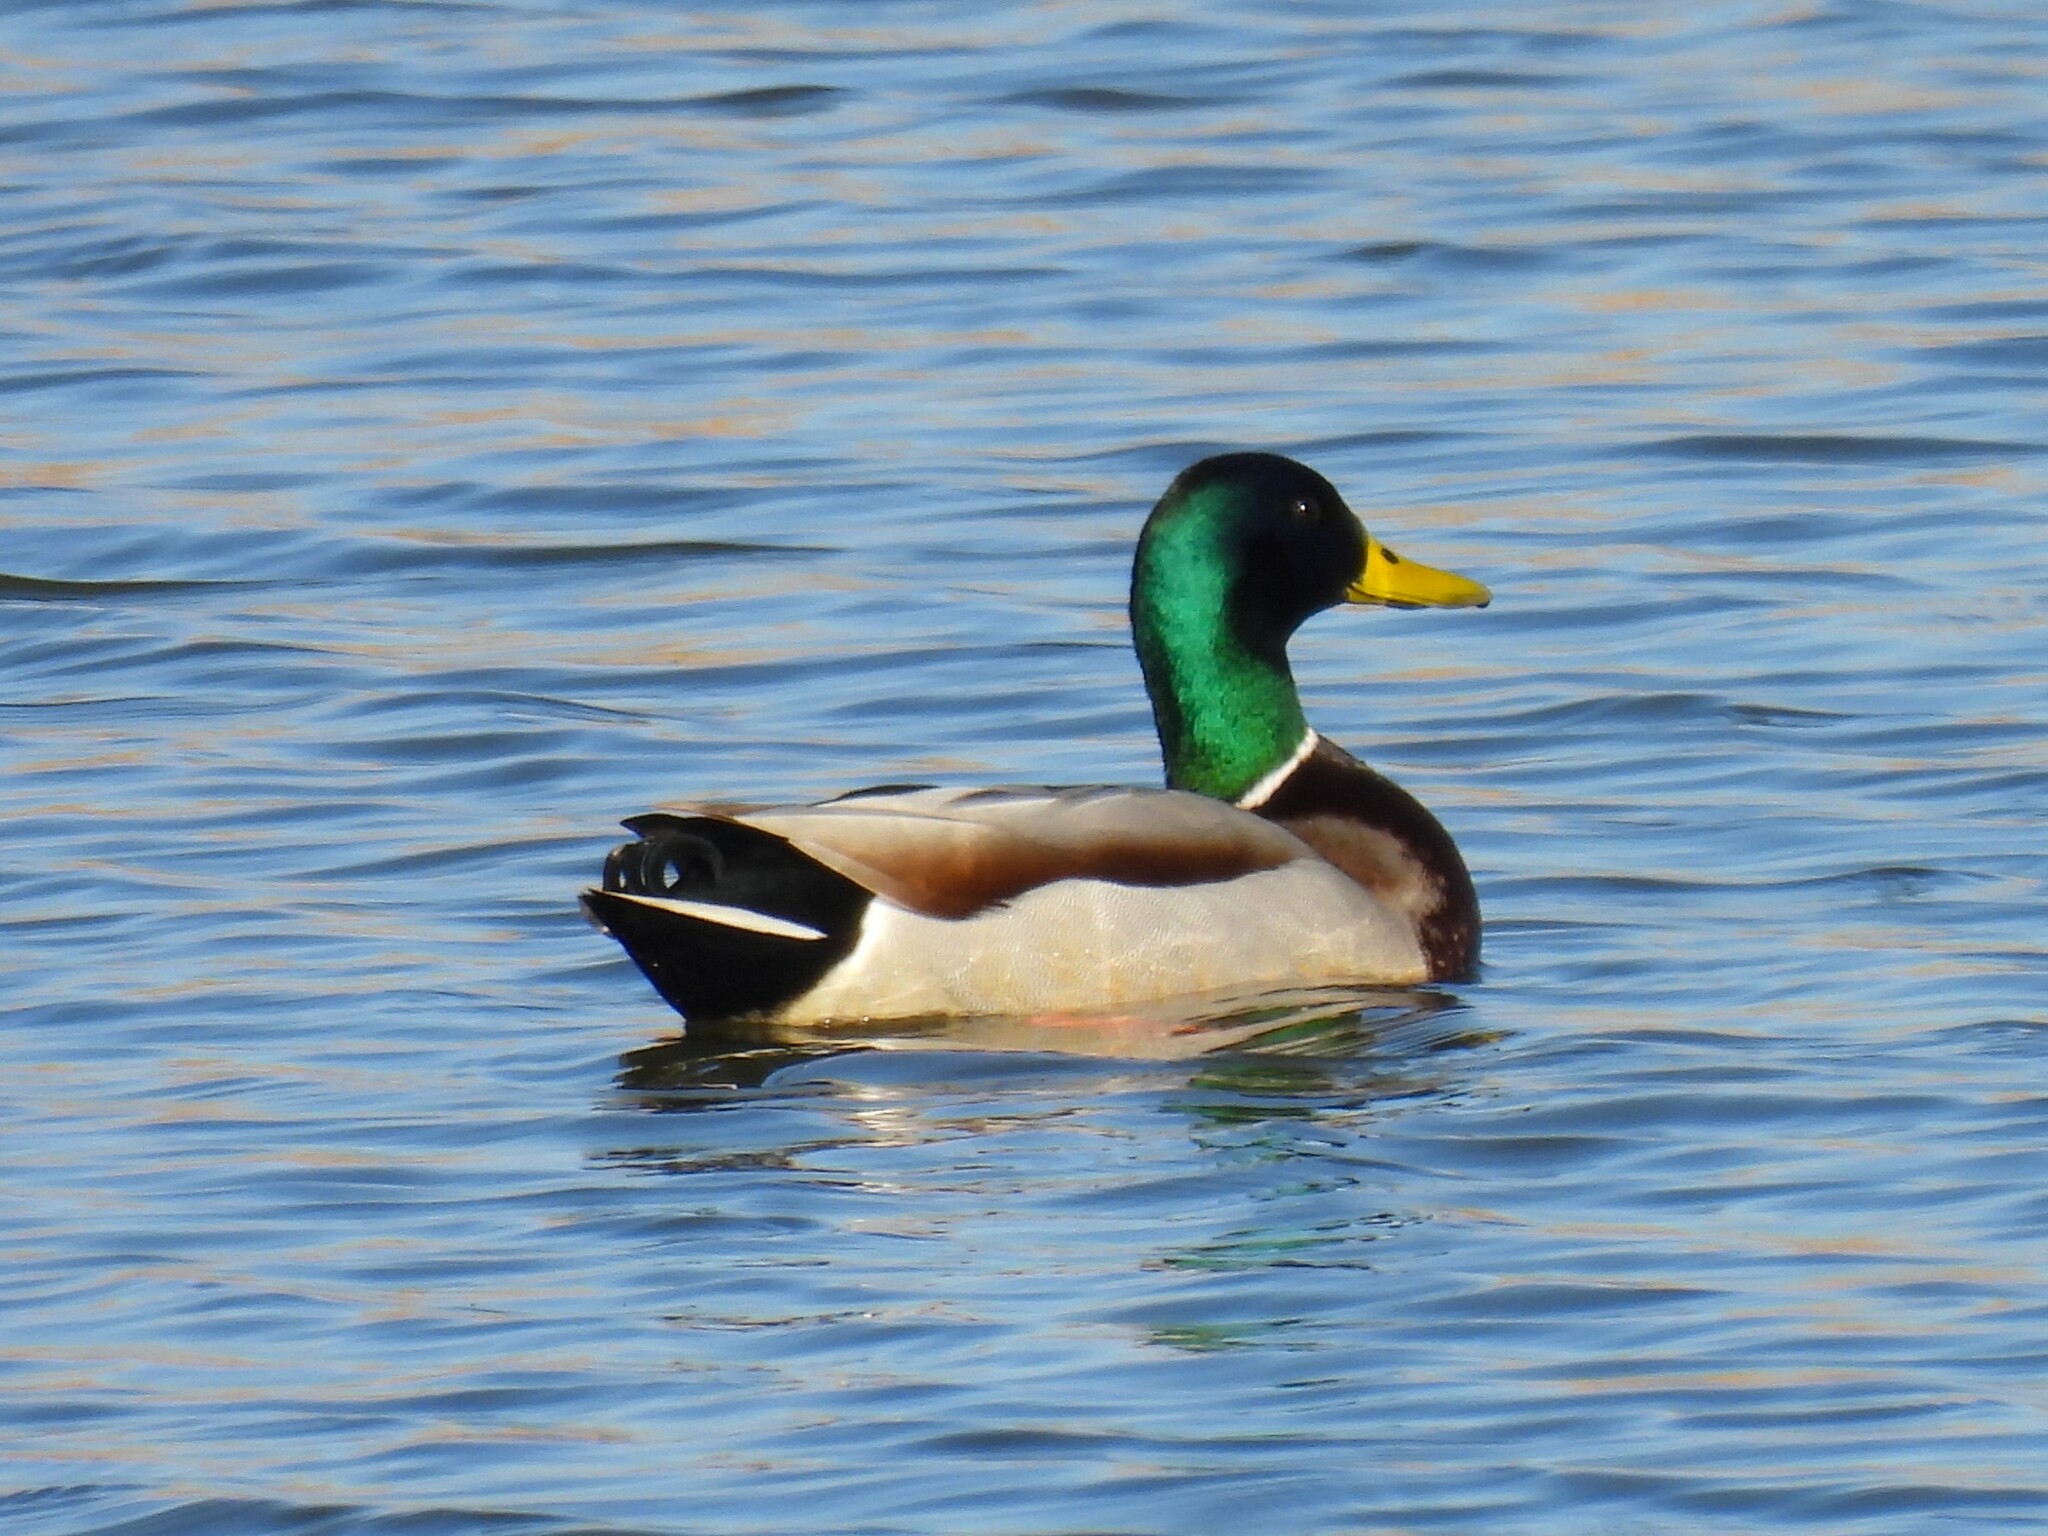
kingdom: Animalia
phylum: Chordata
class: Aves
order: Anseriformes
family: Anatidae
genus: Anas
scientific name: Anas platyrhynchos
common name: Mallard
